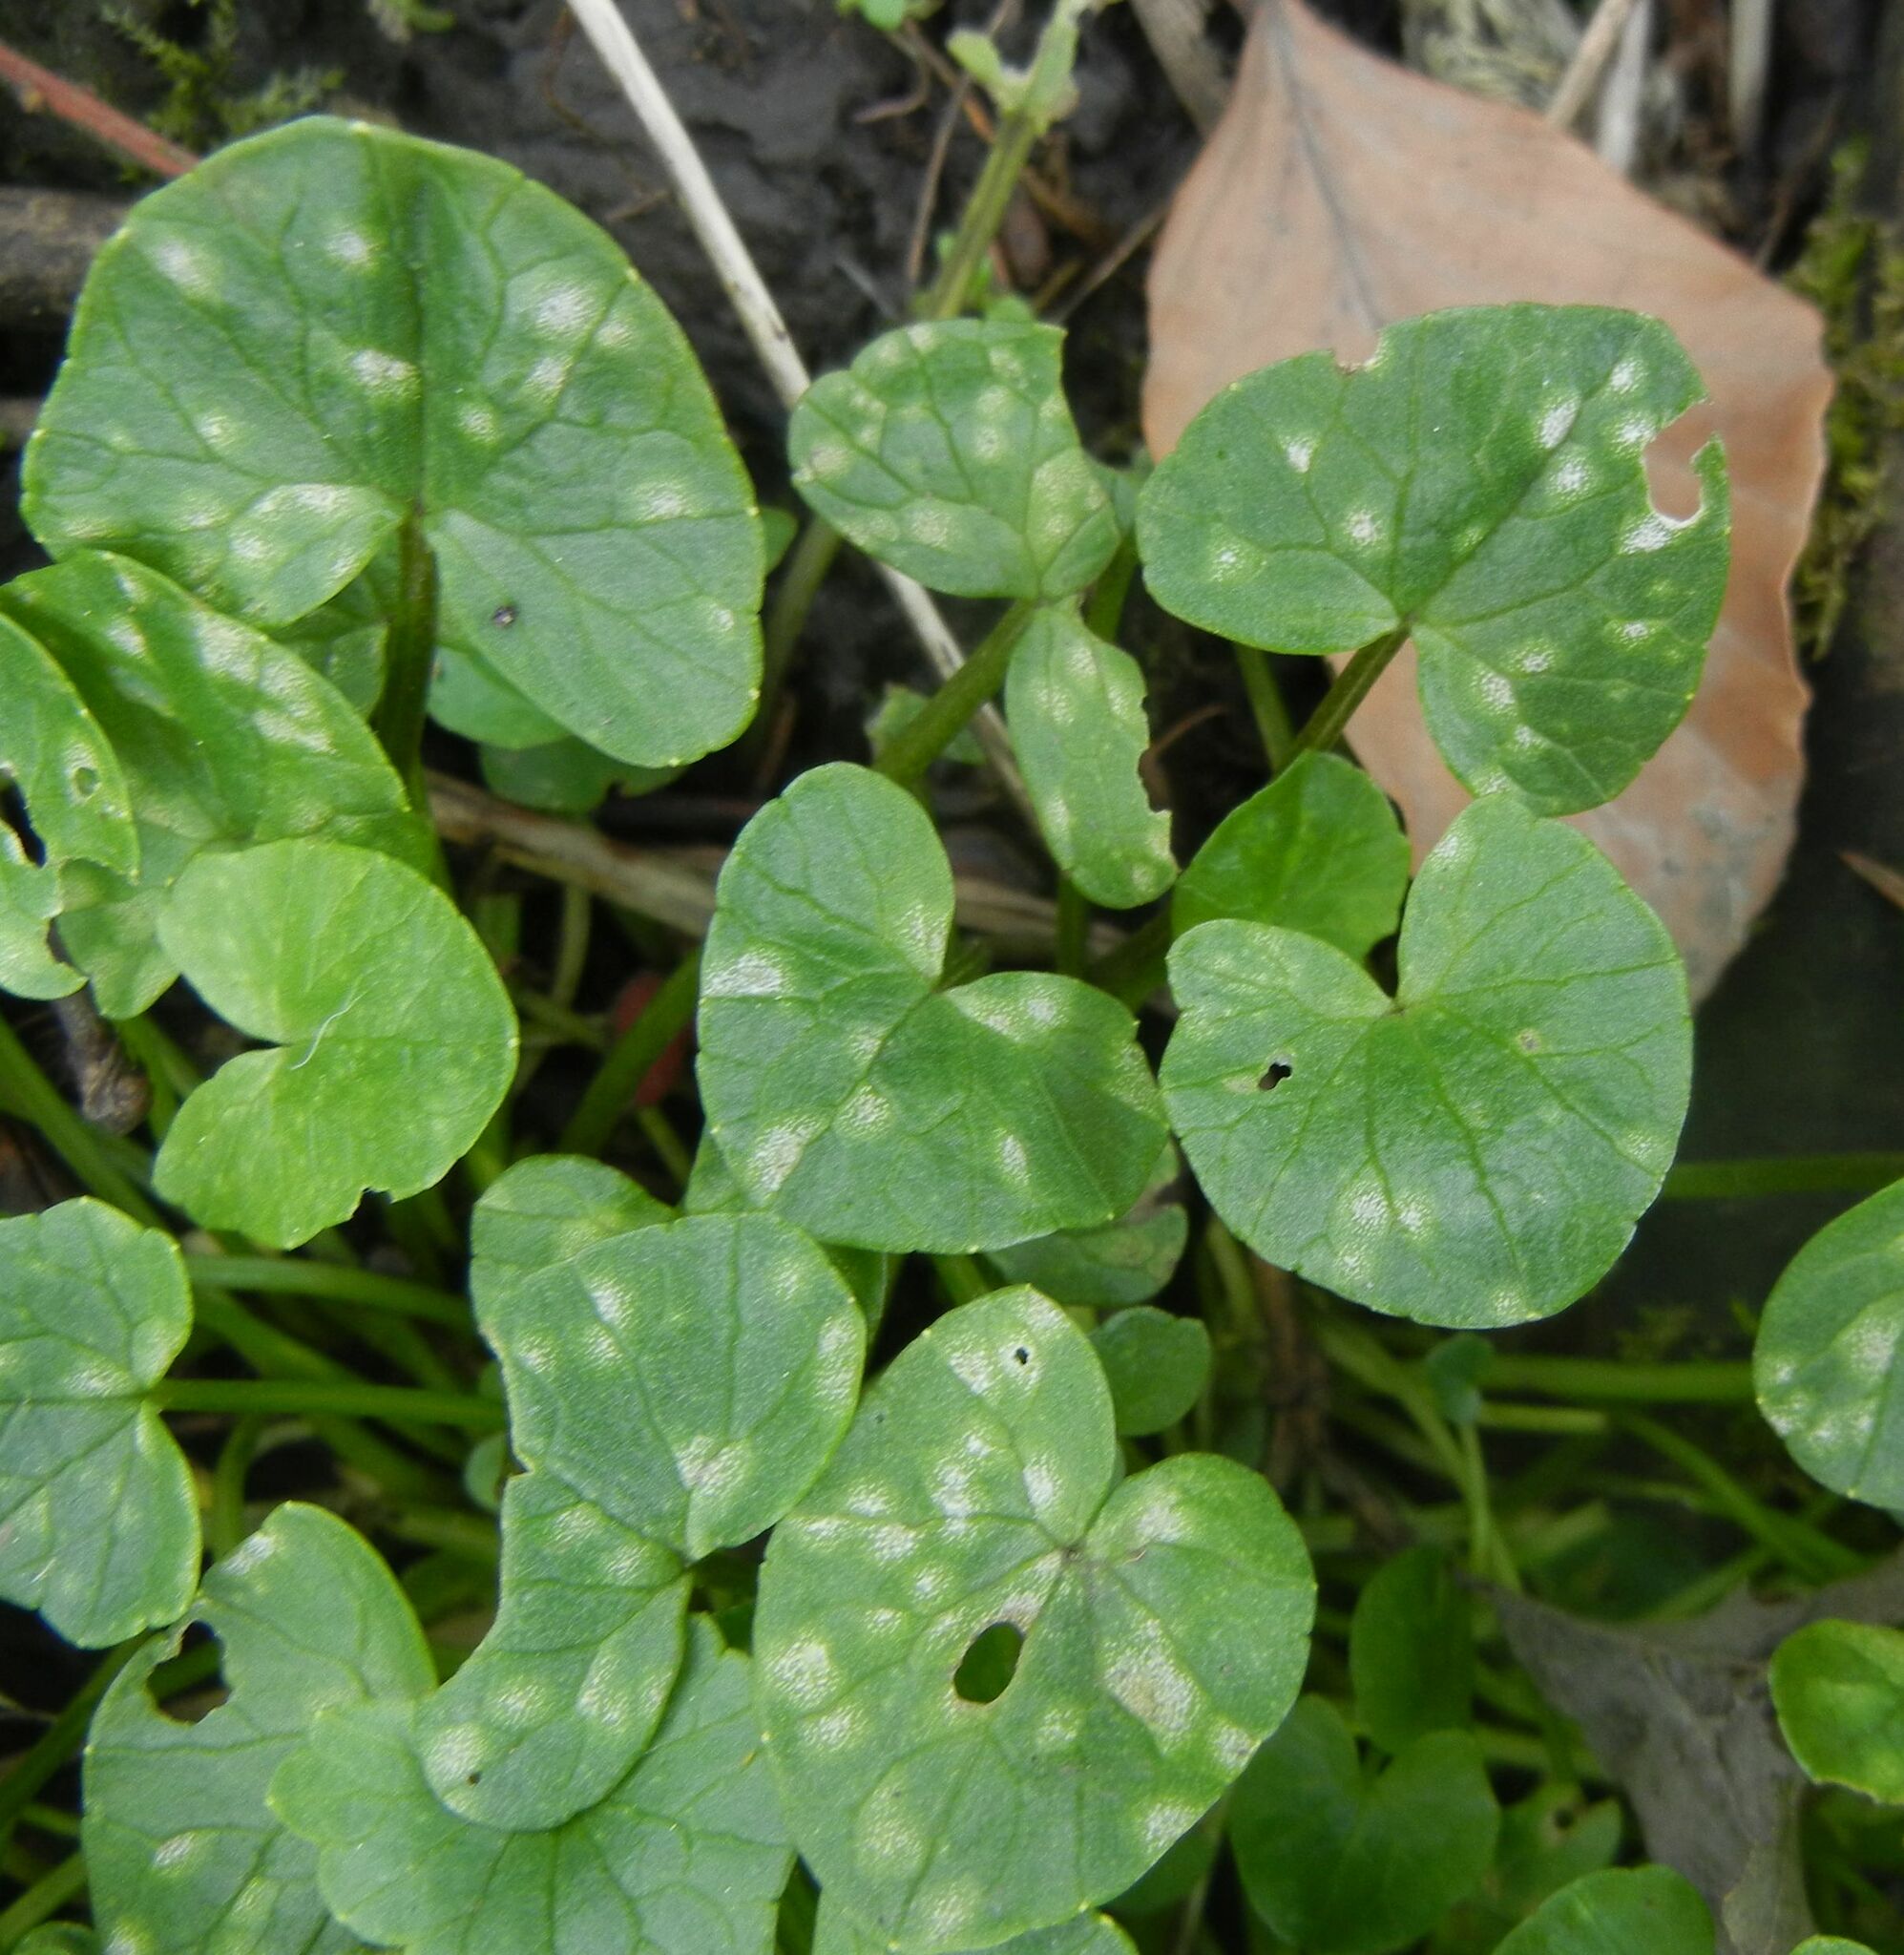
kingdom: Fungi
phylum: Basidiomycota
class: Exobasidiomycetes
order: Entylomatales
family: Entylomataceae
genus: Entyloma
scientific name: Entyloma ficariae
